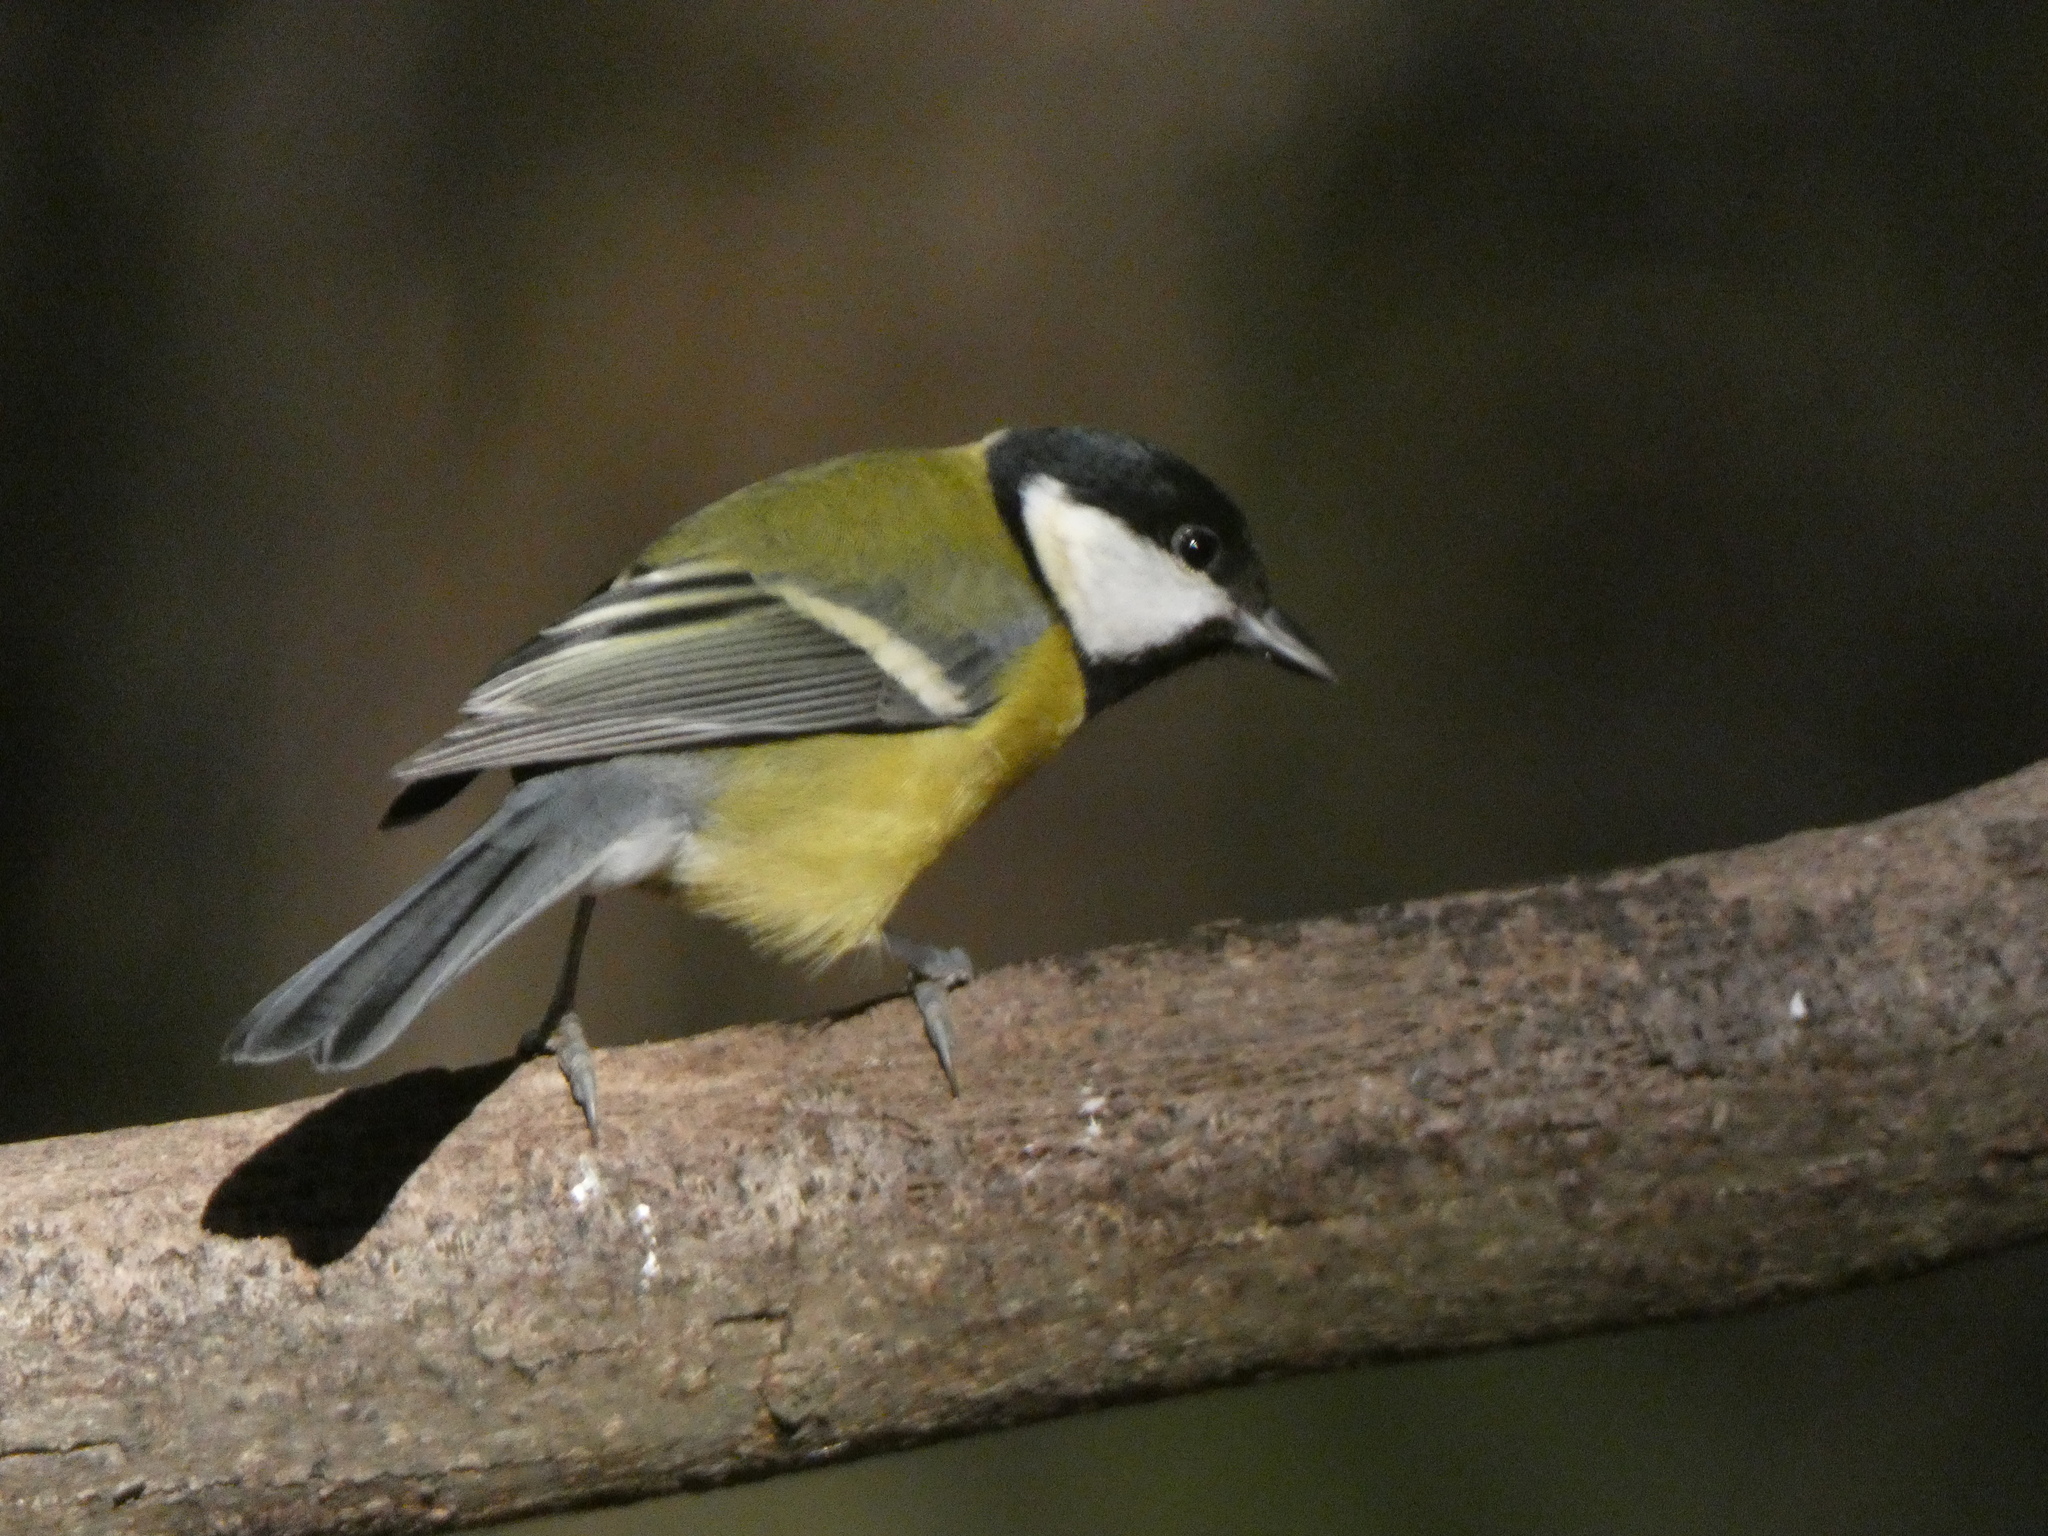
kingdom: Animalia
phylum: Chordata
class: Aves
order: Passeriformes
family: Paridae
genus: Parus
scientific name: Parus major
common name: Great tit
